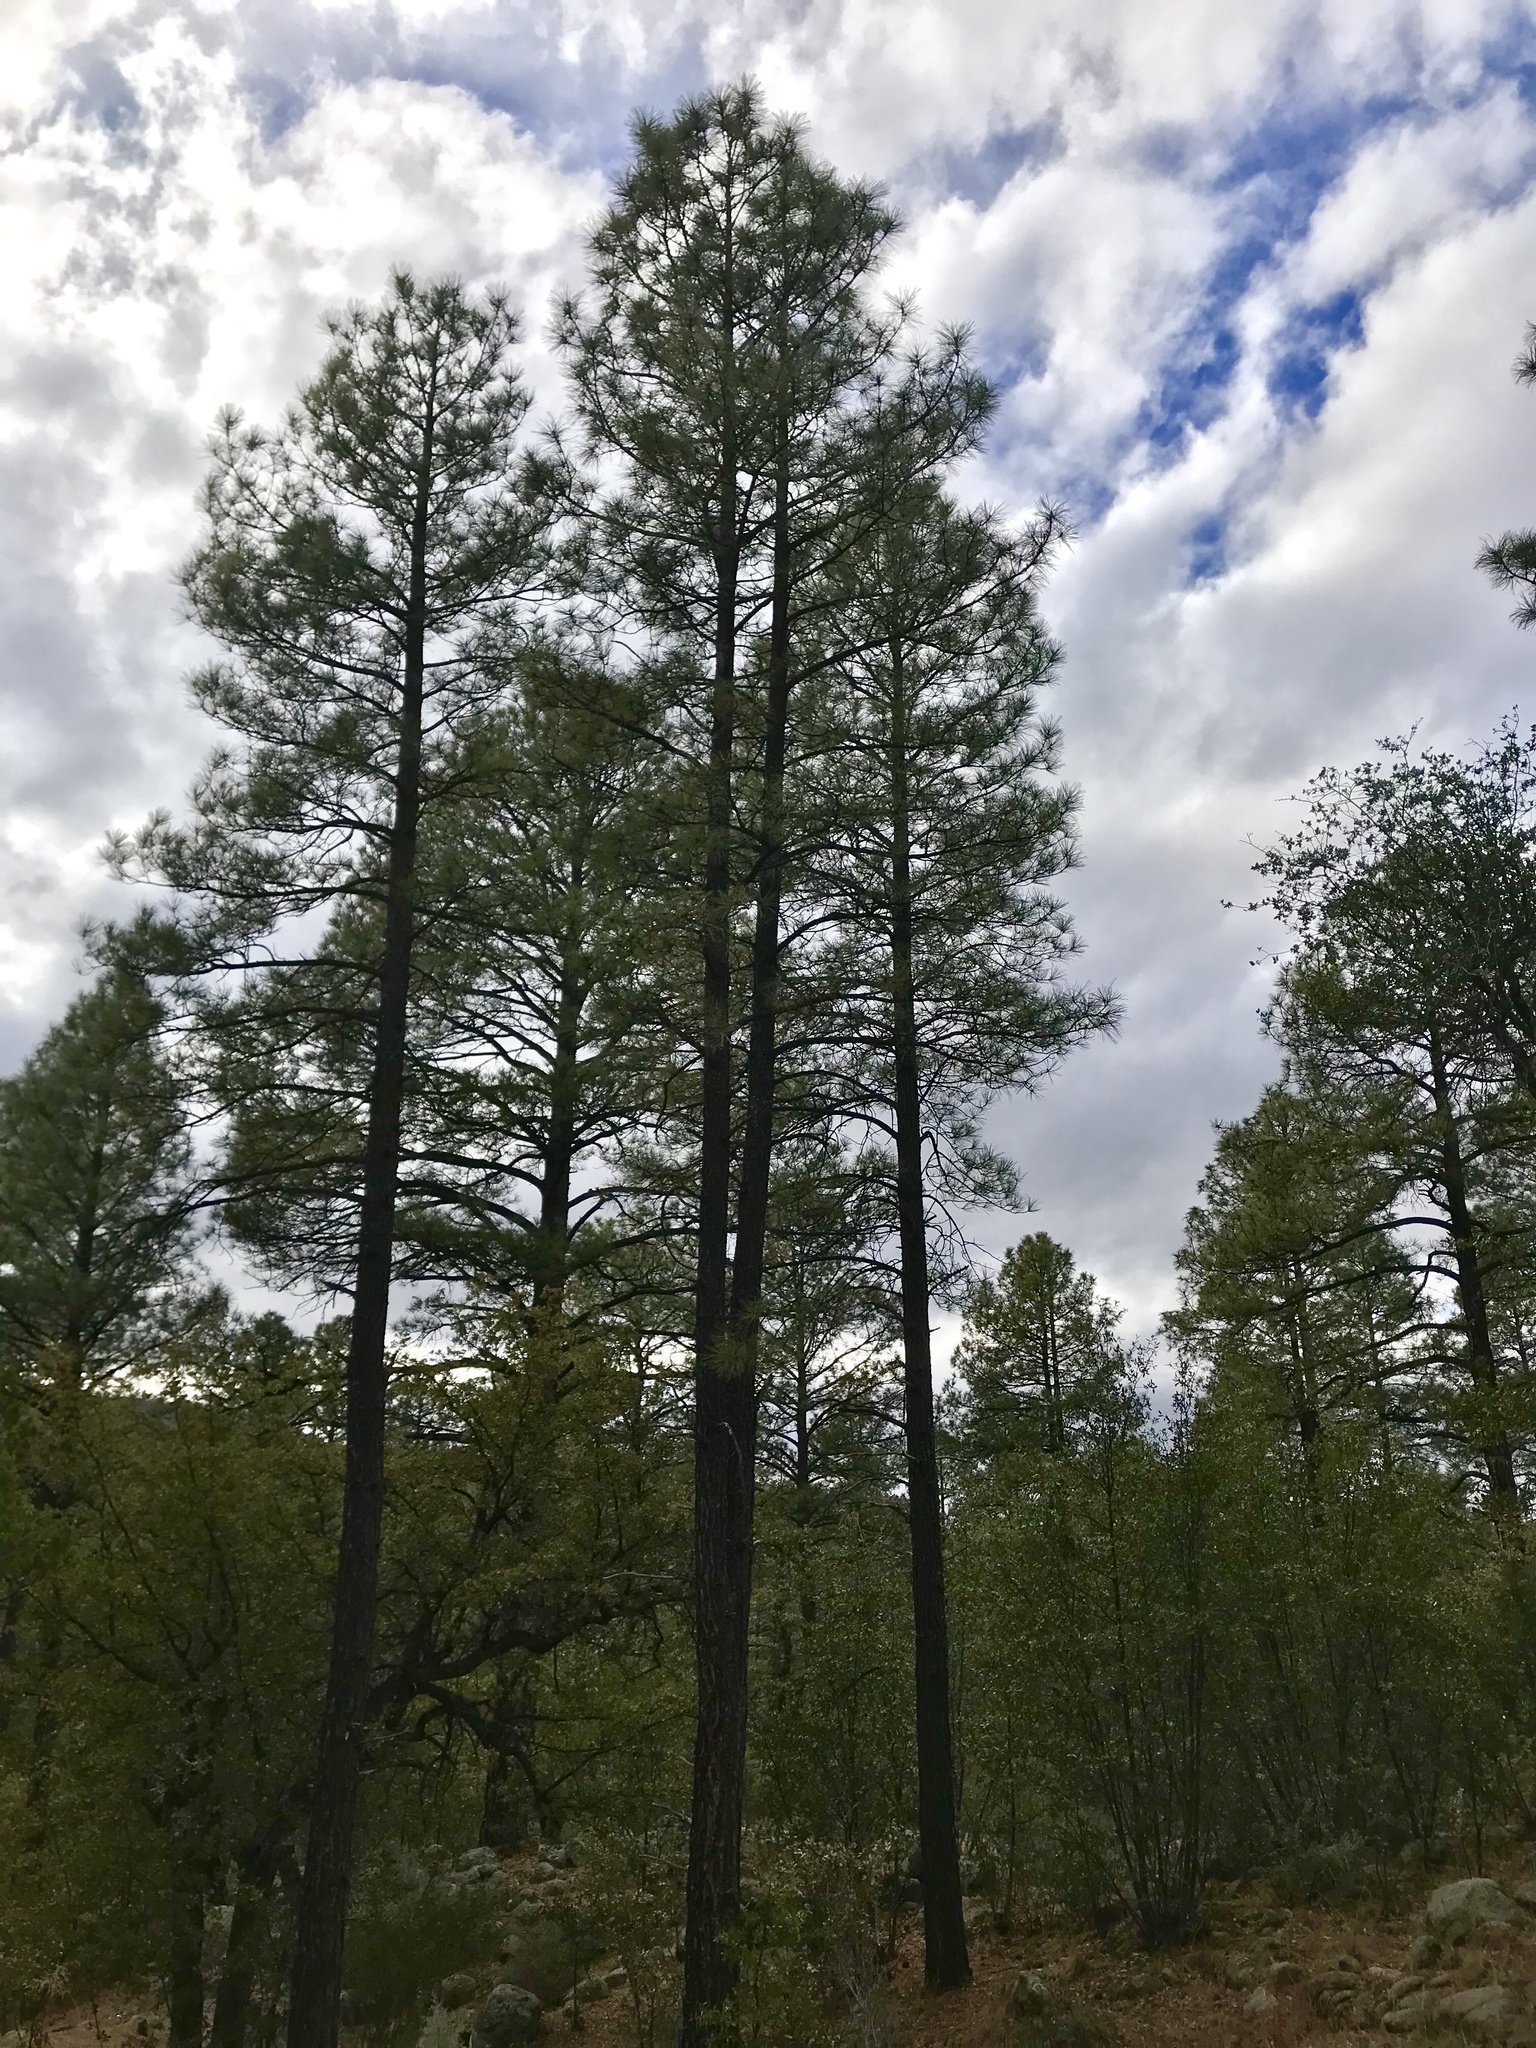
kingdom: Plantae
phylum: Tracheophyta
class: Pinopsida
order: Pinales
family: Pinaceae
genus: Pinus
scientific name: Pinus ponderosa
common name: Western yellow-pine
